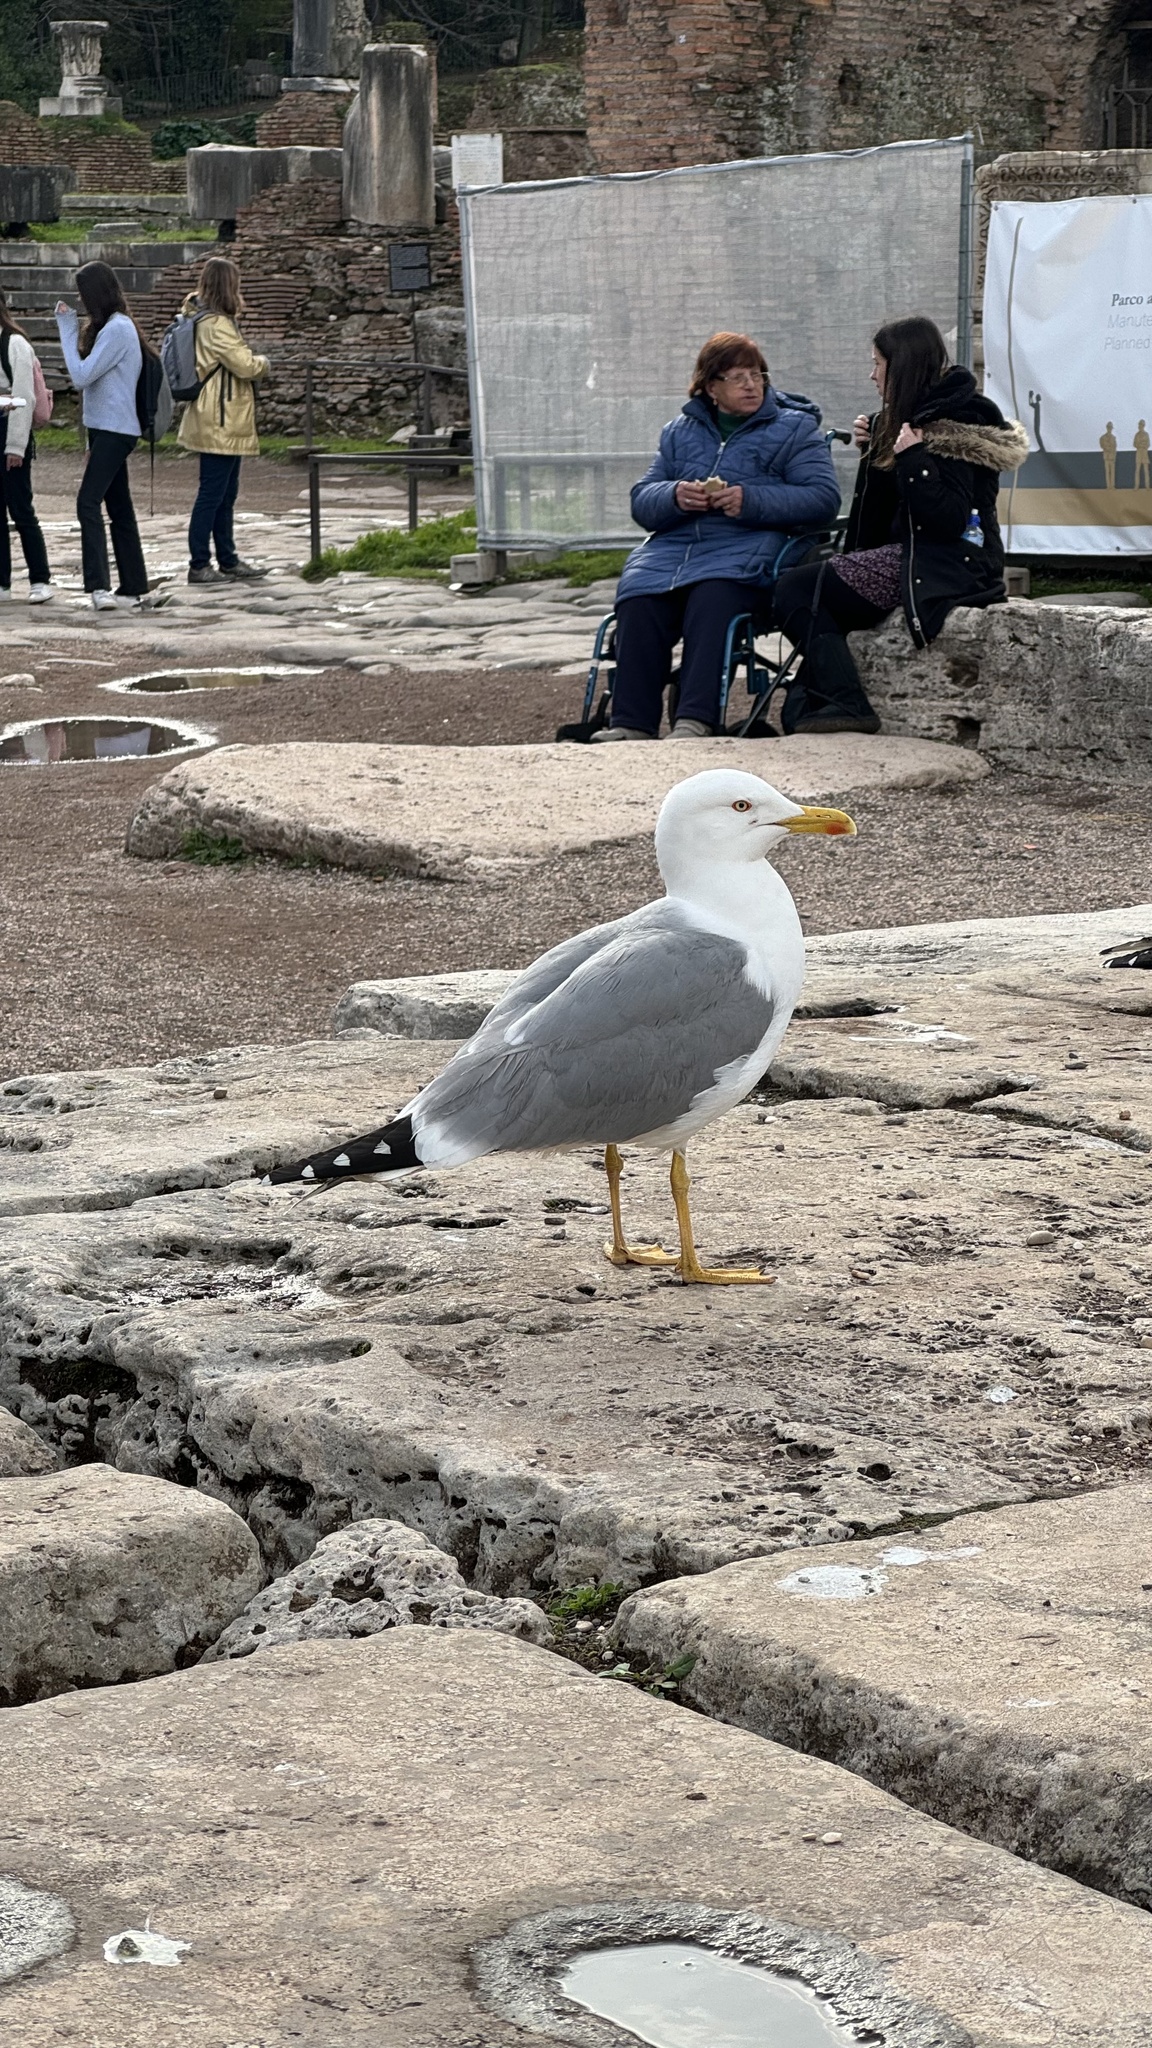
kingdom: Animalia
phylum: Chordata
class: Aves
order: Charadriiformes
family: Laridae
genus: Larus
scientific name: Larus michahellis
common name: Yellow-legged gull
